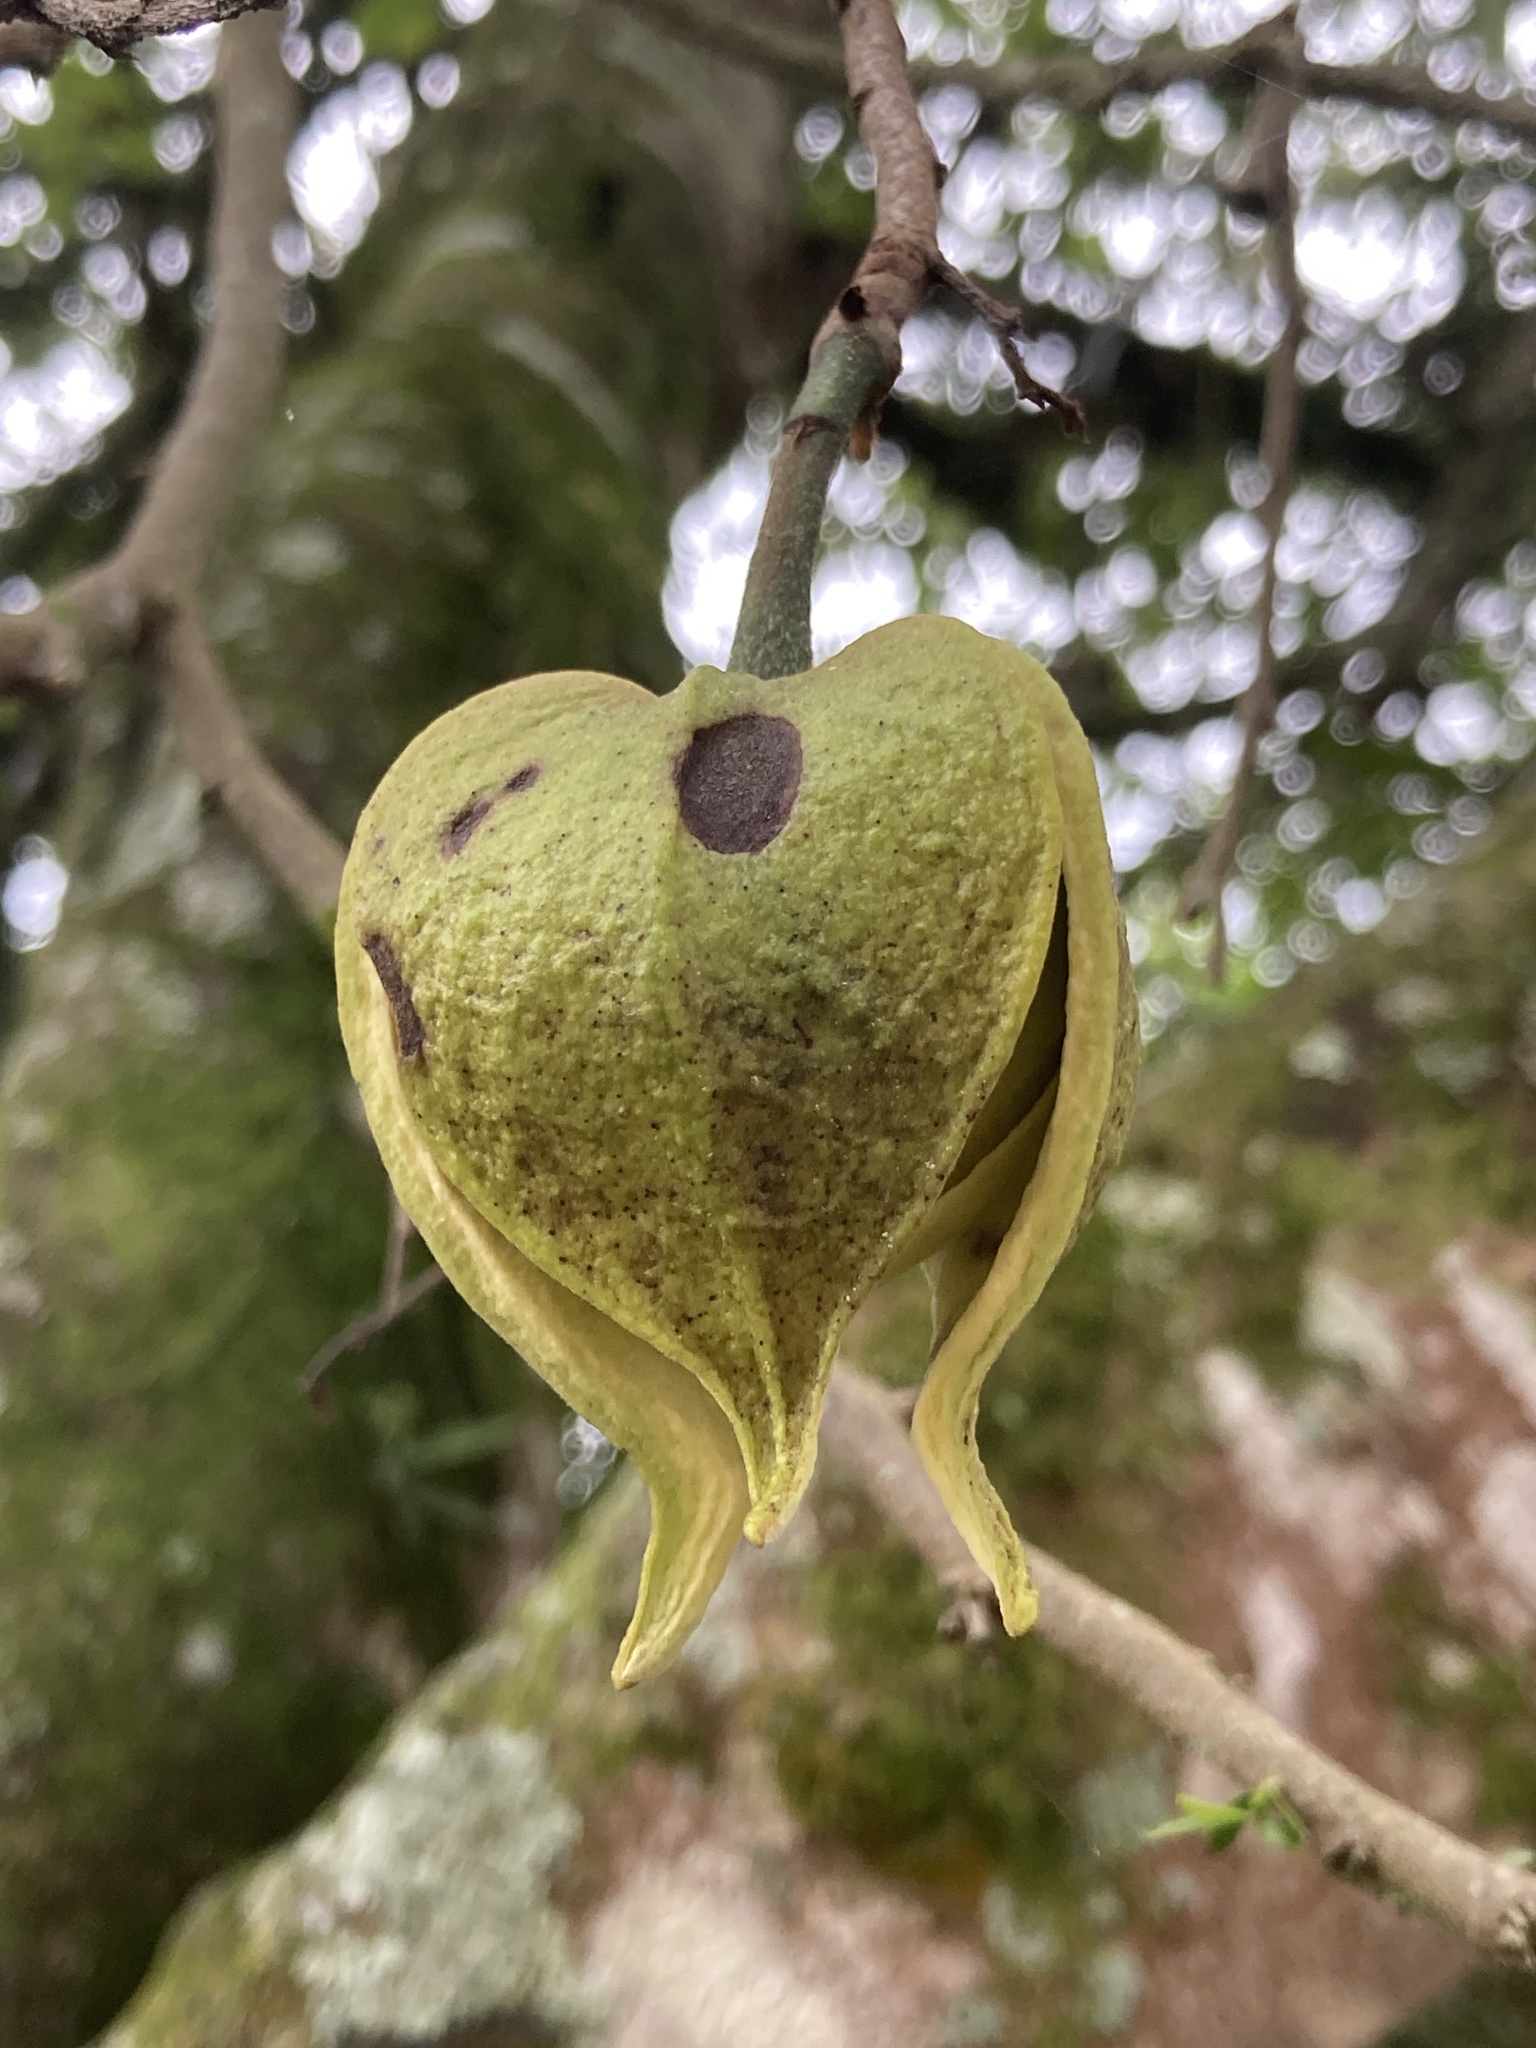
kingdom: Plantae
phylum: Tracheophyta
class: Magnoliopsida
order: Magnoliales
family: Annonaceae
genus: Annona
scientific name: Annona muricata
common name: Soursop
